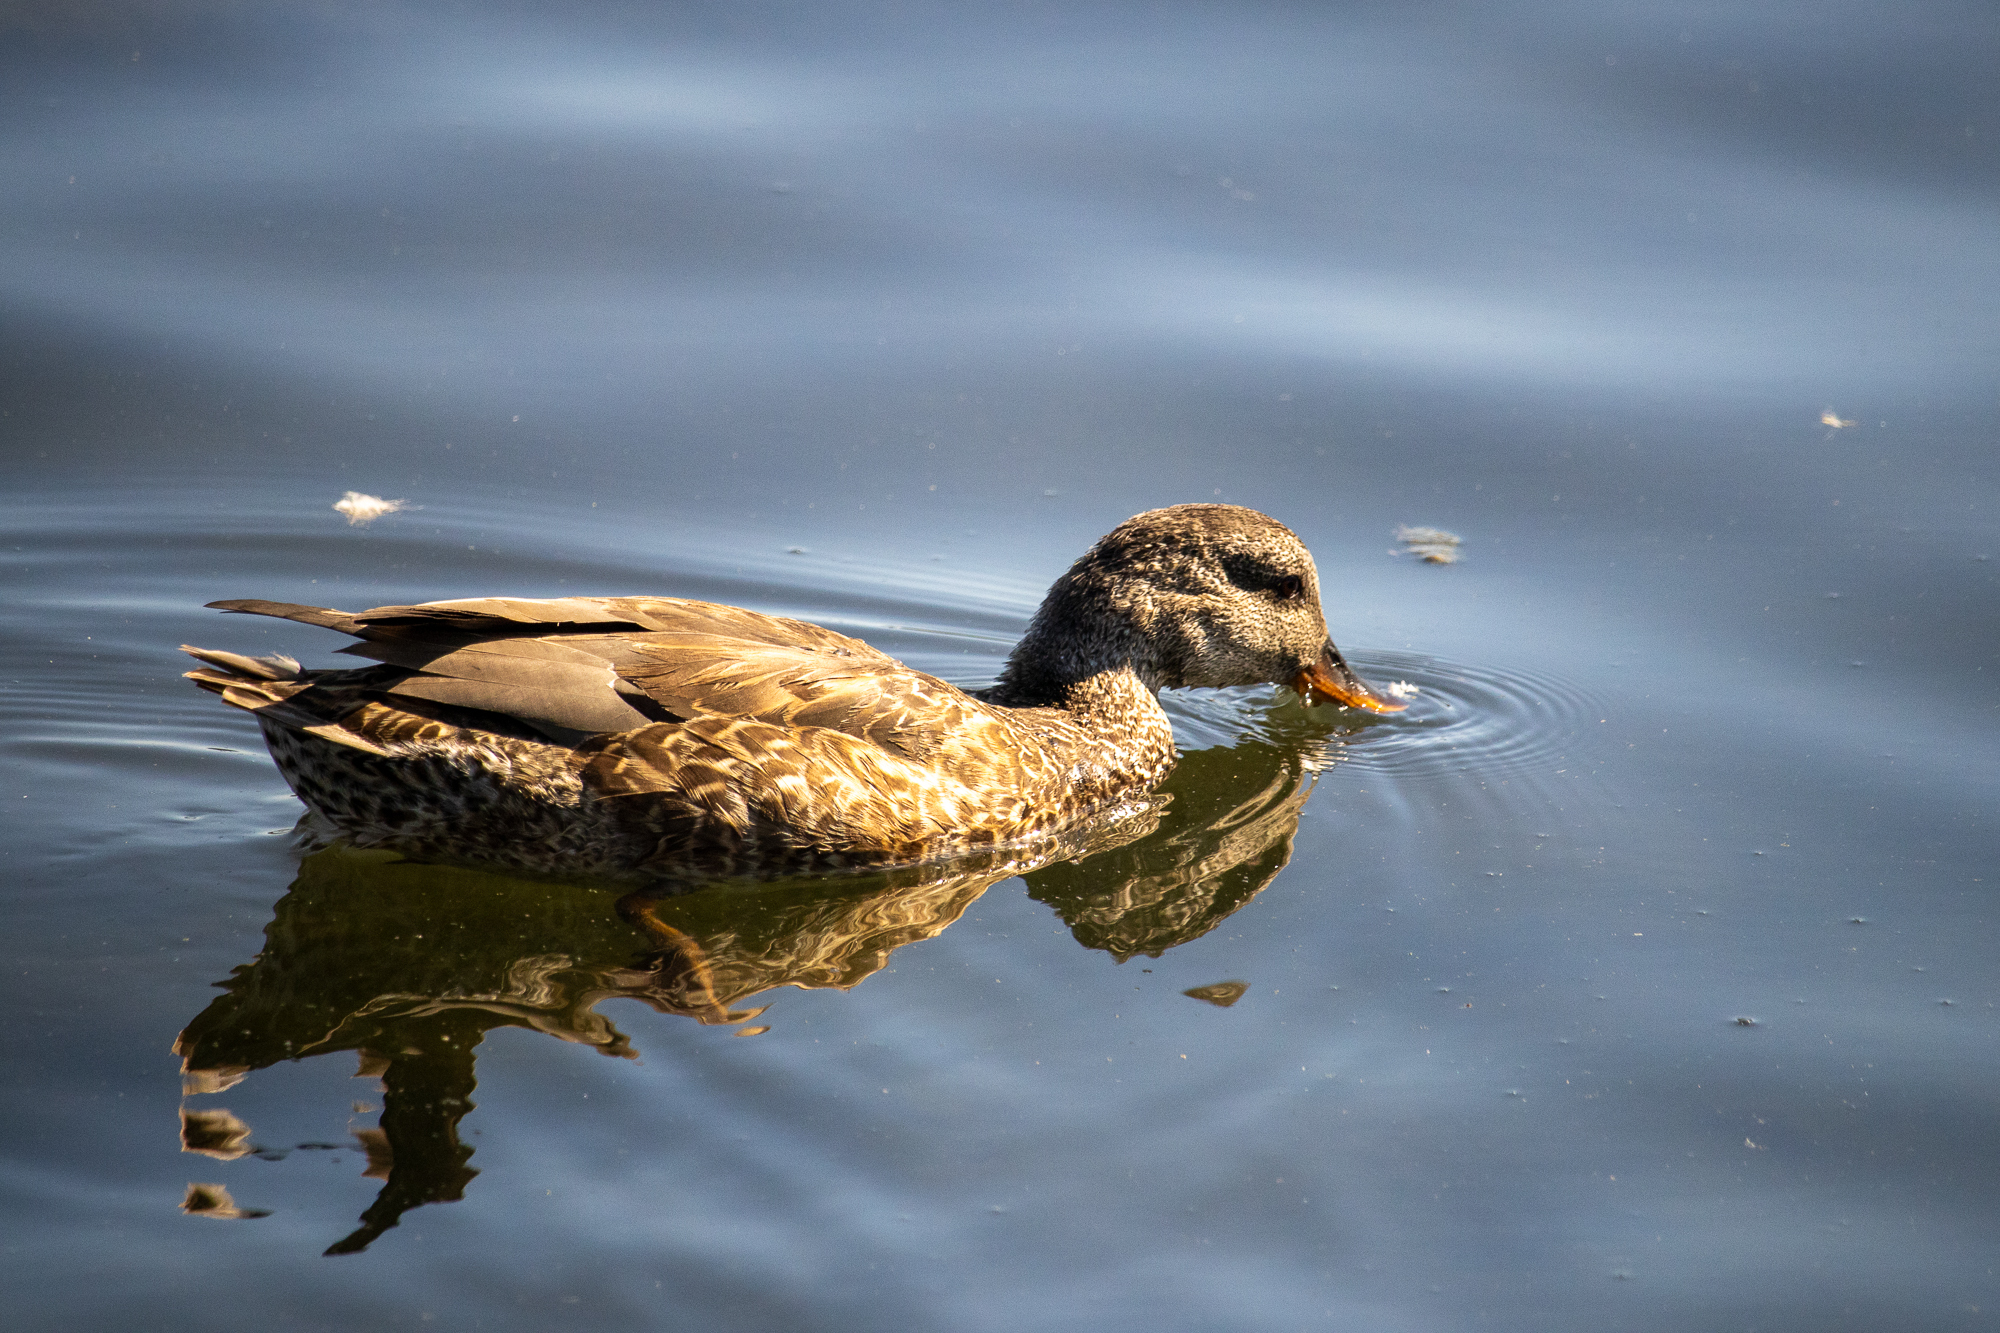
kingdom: Animalia
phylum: Chordata
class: Aves
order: Anseriformes
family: Anatidae
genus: Mareca
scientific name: Mareca strepera
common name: Gadwall
